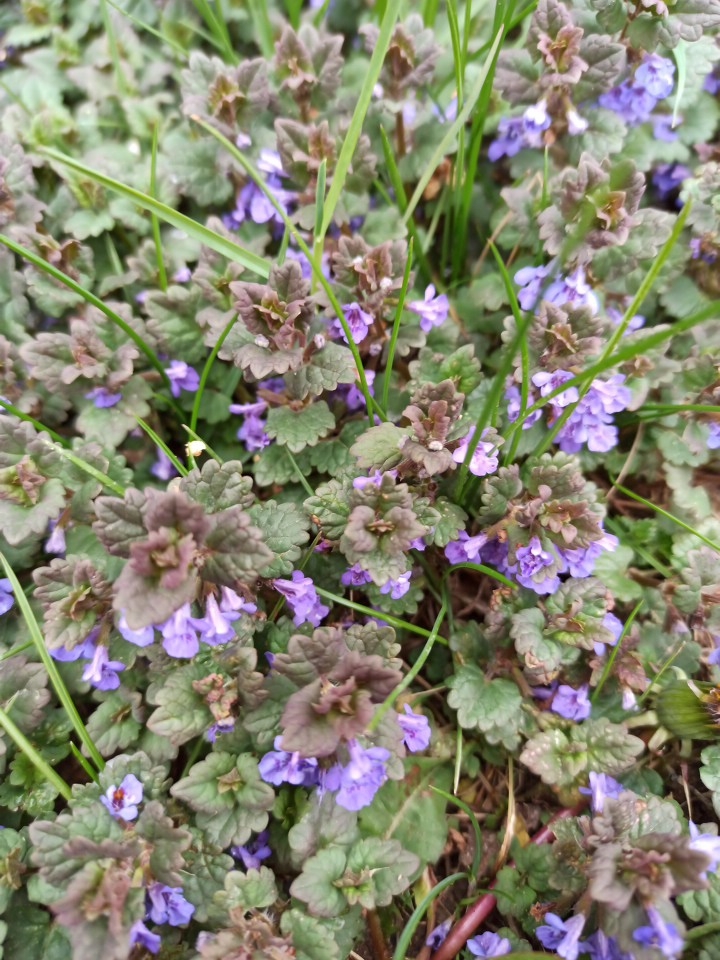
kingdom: Plantae
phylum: Tracheophyta
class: Magnoliopsida
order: Lamiales
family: Lamiaceae
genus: Glechoma
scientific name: Glechoma hederacea
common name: Ground ivy
